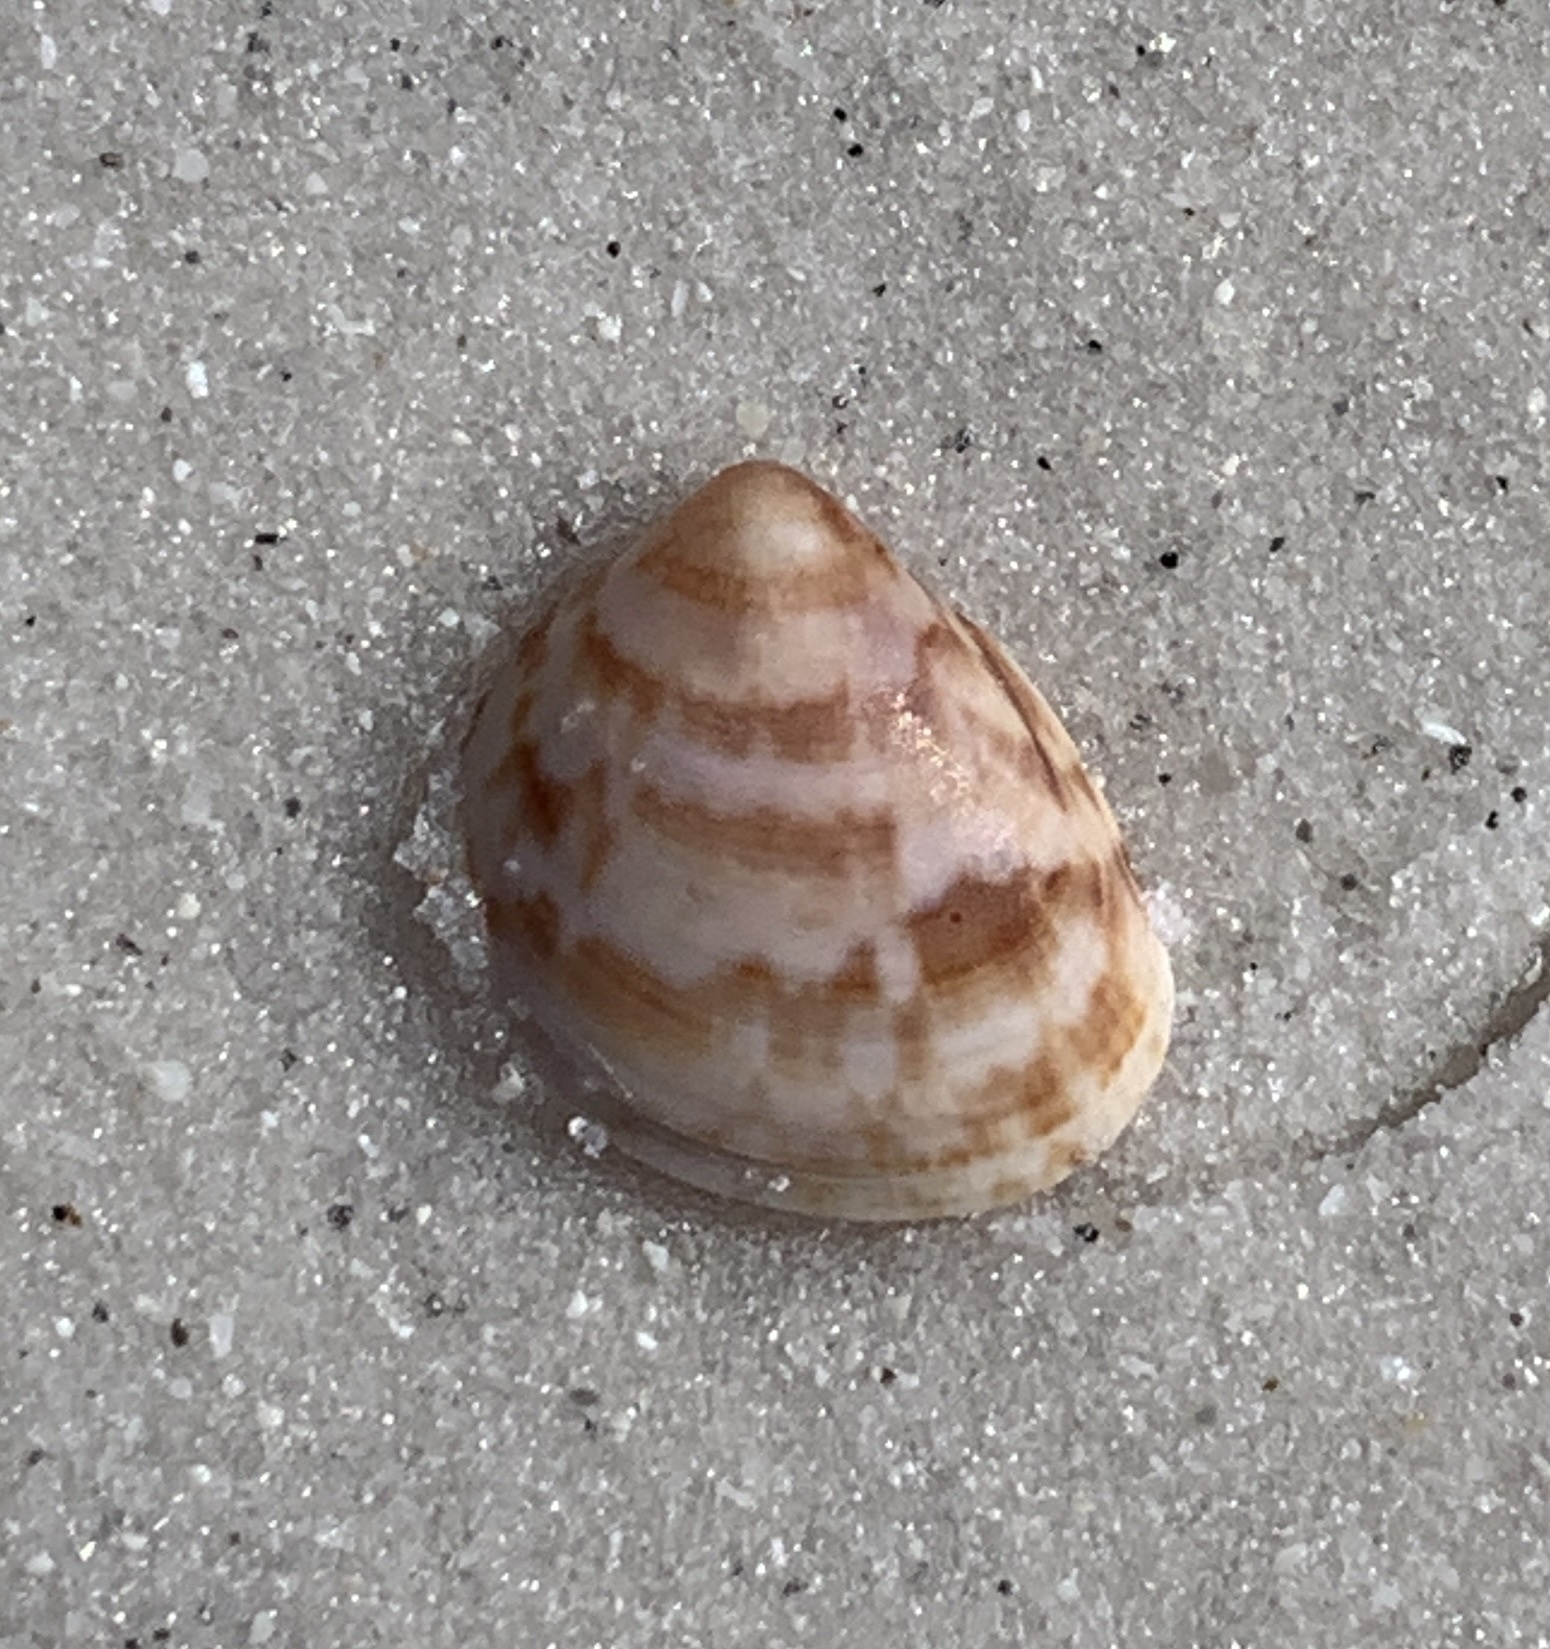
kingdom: Animalia
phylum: Mollusca
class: Bivalvia
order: Cardiida
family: Cardiidae
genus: Laevicardium
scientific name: Laevicardium pictum
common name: Painted eggcockle
